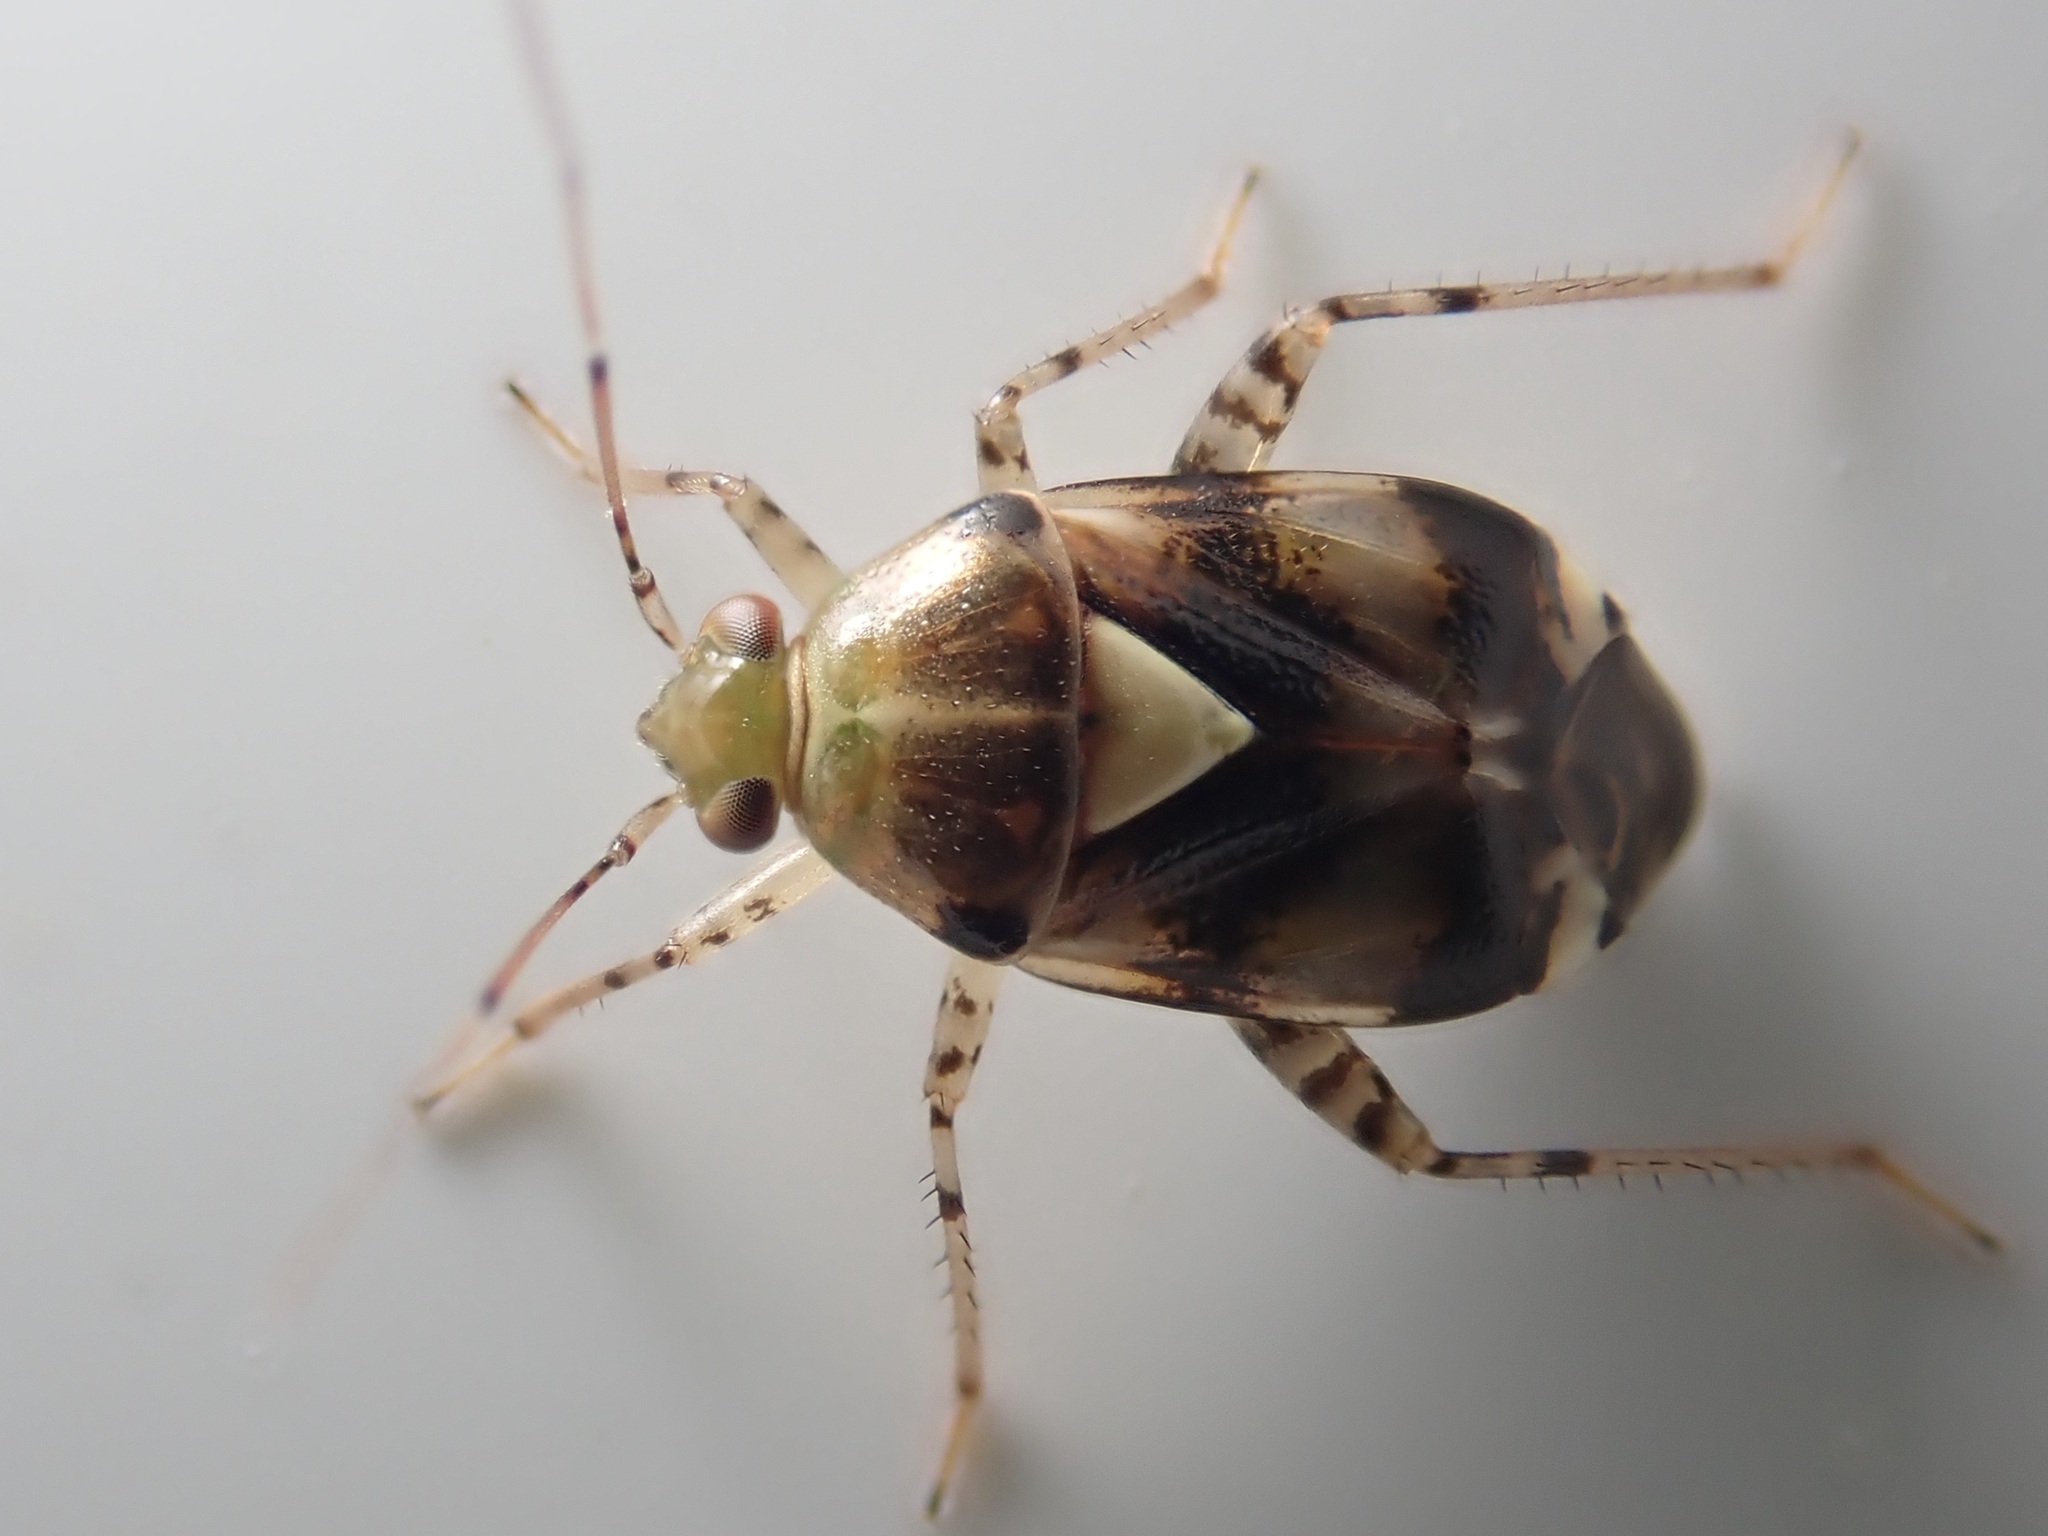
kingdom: Animalia
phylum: Arthropoda
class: Insecta
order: Hemiptera
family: Miridae
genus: Liocoris
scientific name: Liocoris tripustulatus
